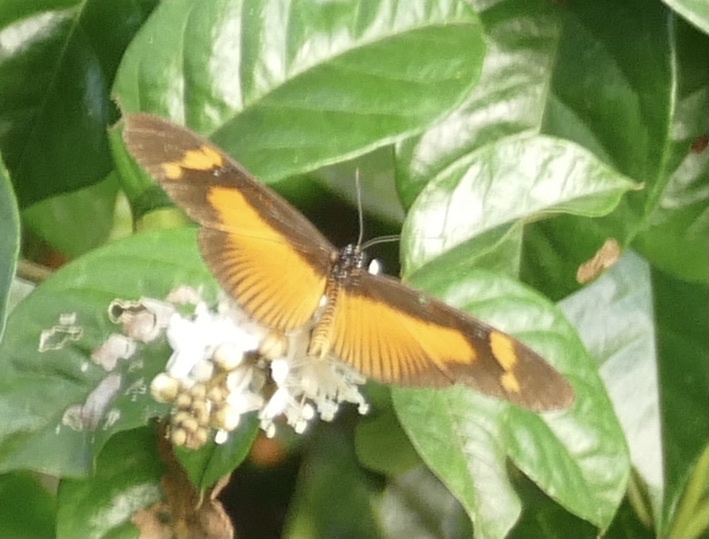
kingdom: Animalia
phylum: Arthropoda
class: Insecta
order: Lepidoptera
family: Nymphalidae
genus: Acraea
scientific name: Acraea Bematistes epaea
